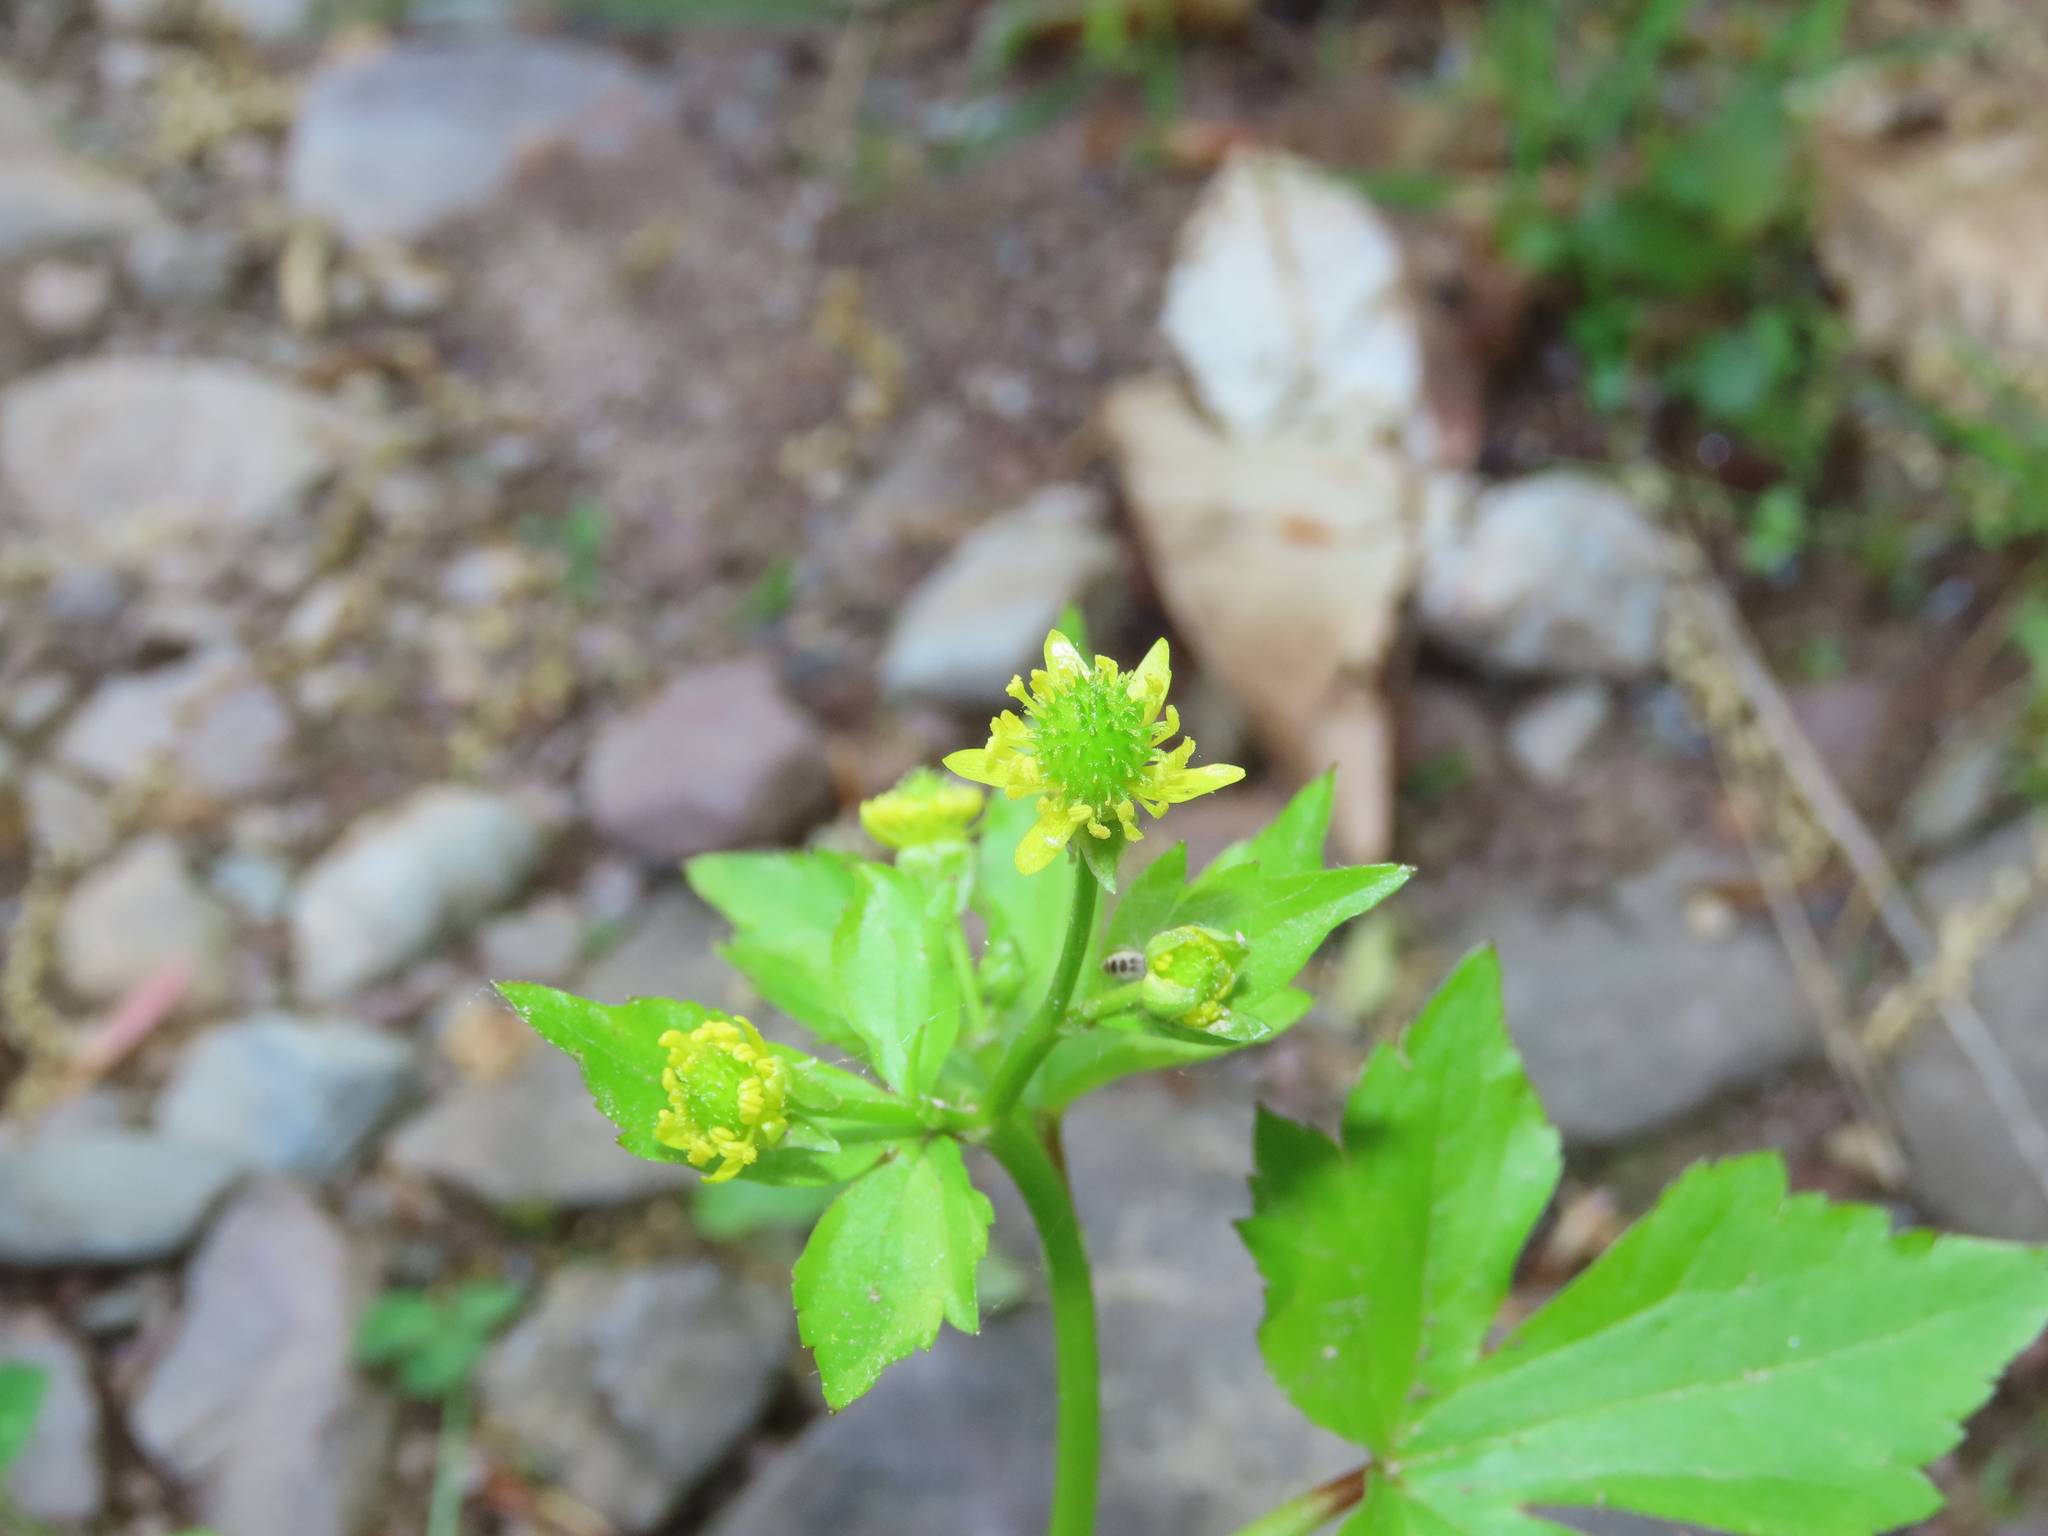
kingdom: Plantae
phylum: Tracheophyta
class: Magnoliopsida
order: Ranunculales
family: Ranunculaceae
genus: Ranunculus
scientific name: Ranunculus recurvatus
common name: Blisterwort
